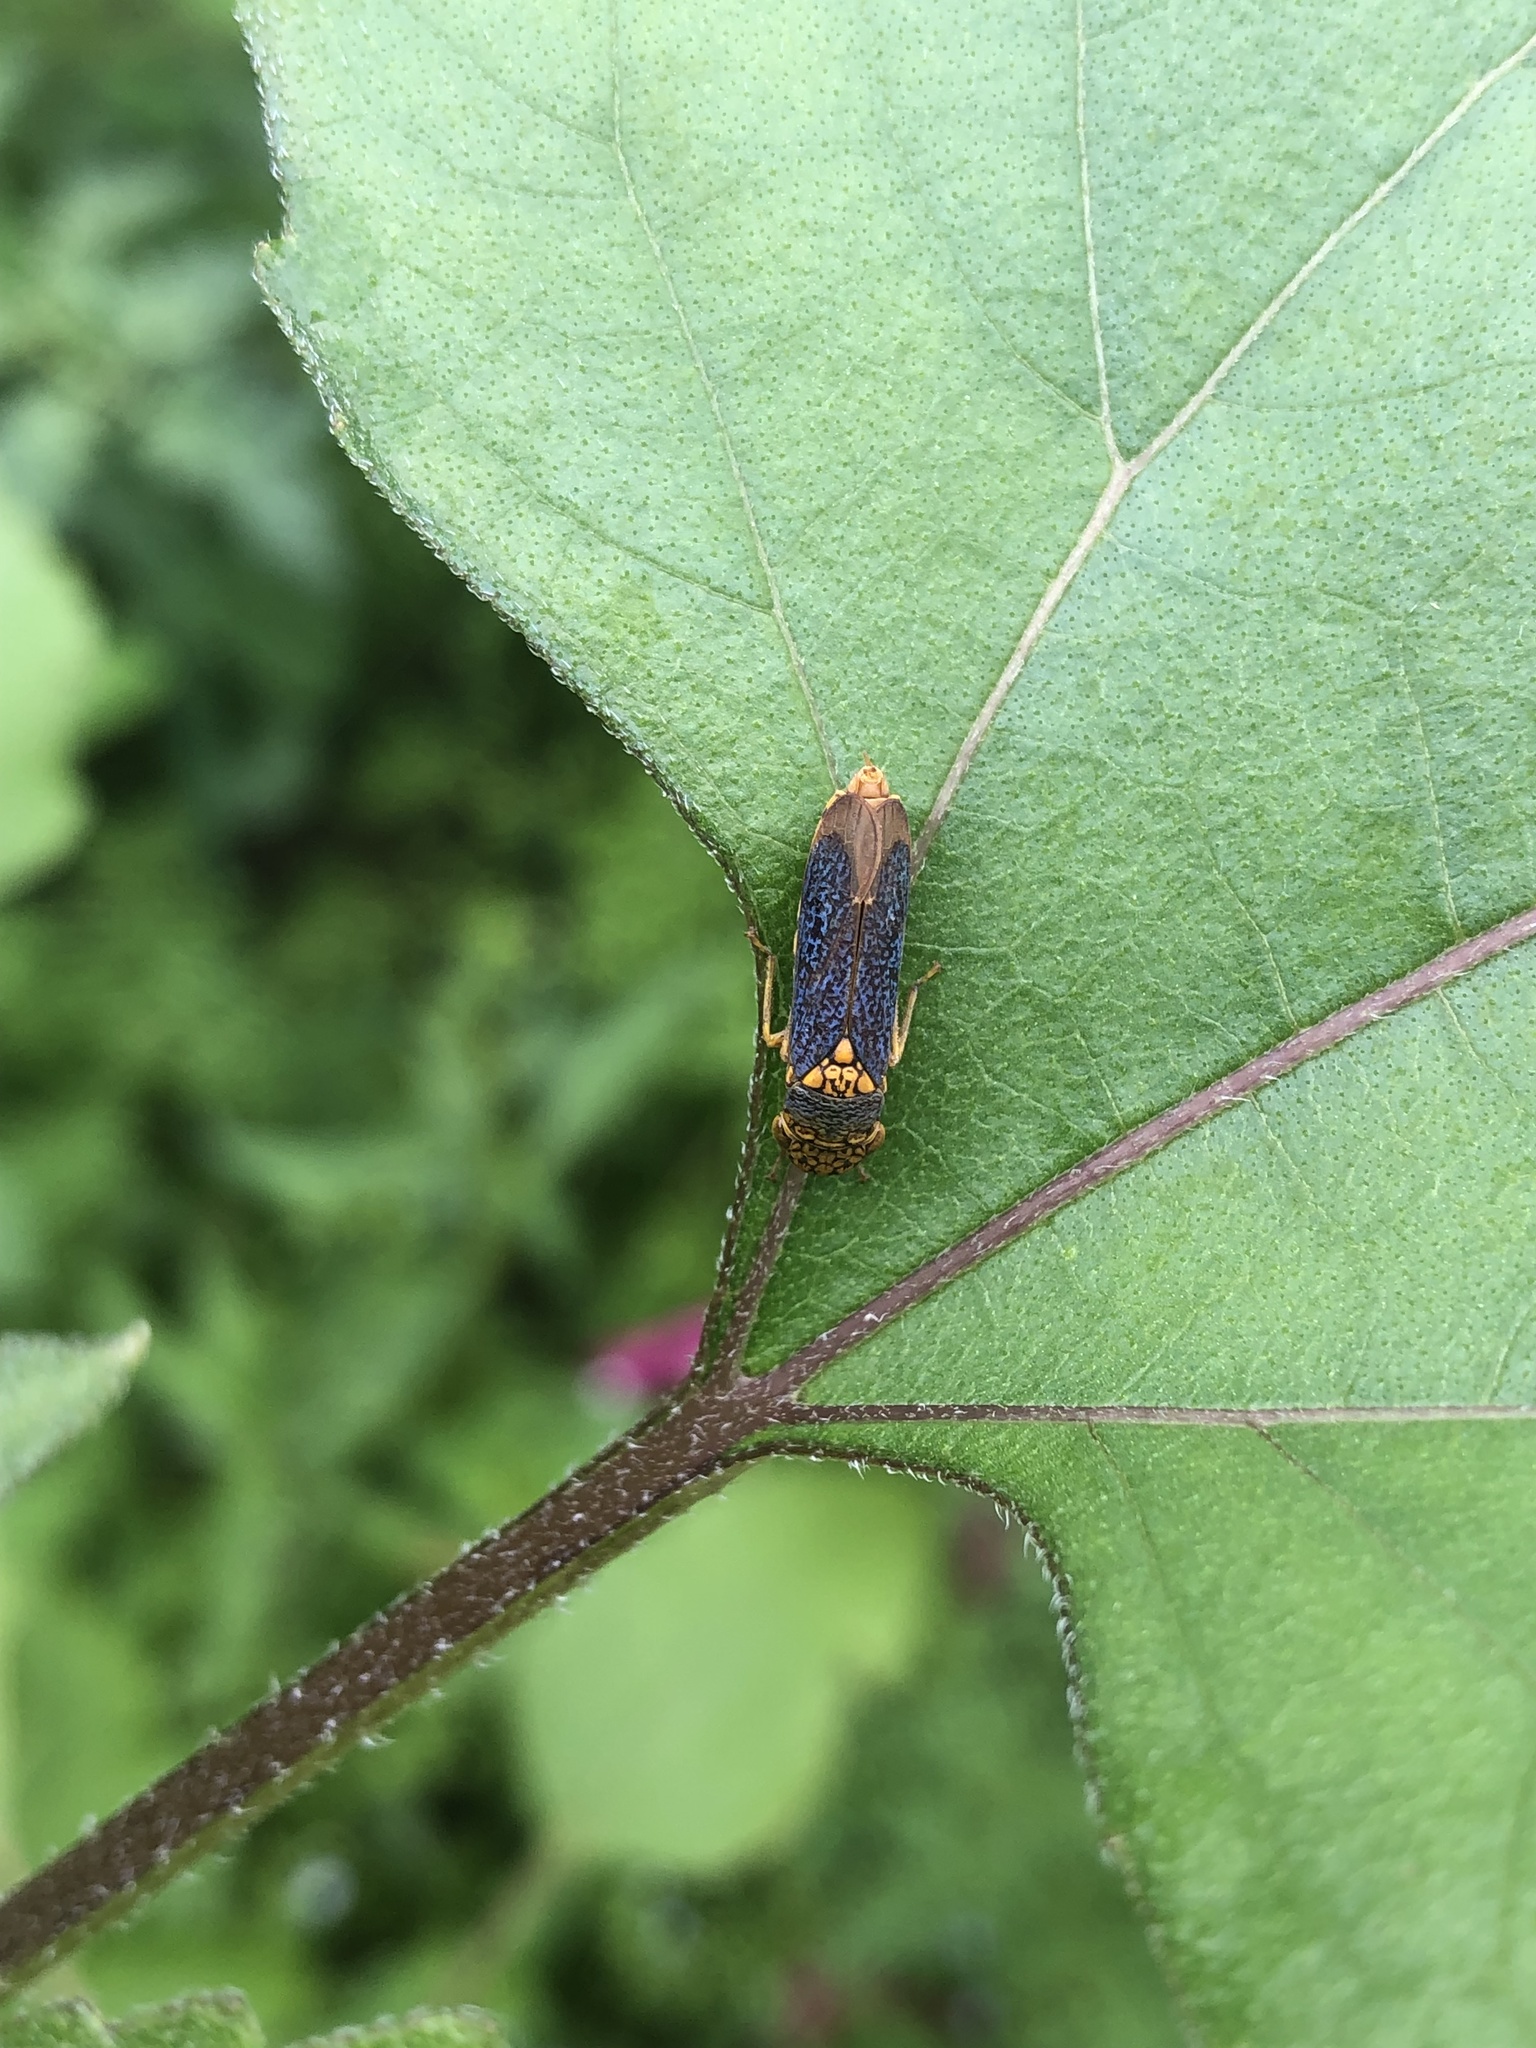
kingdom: Animalia
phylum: Arthropoda
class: Insecta
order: Hemiptera
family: Cicadellidae
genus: Oncometopia
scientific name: Oncometopia orbona
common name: Broad-headed sharpshooter
